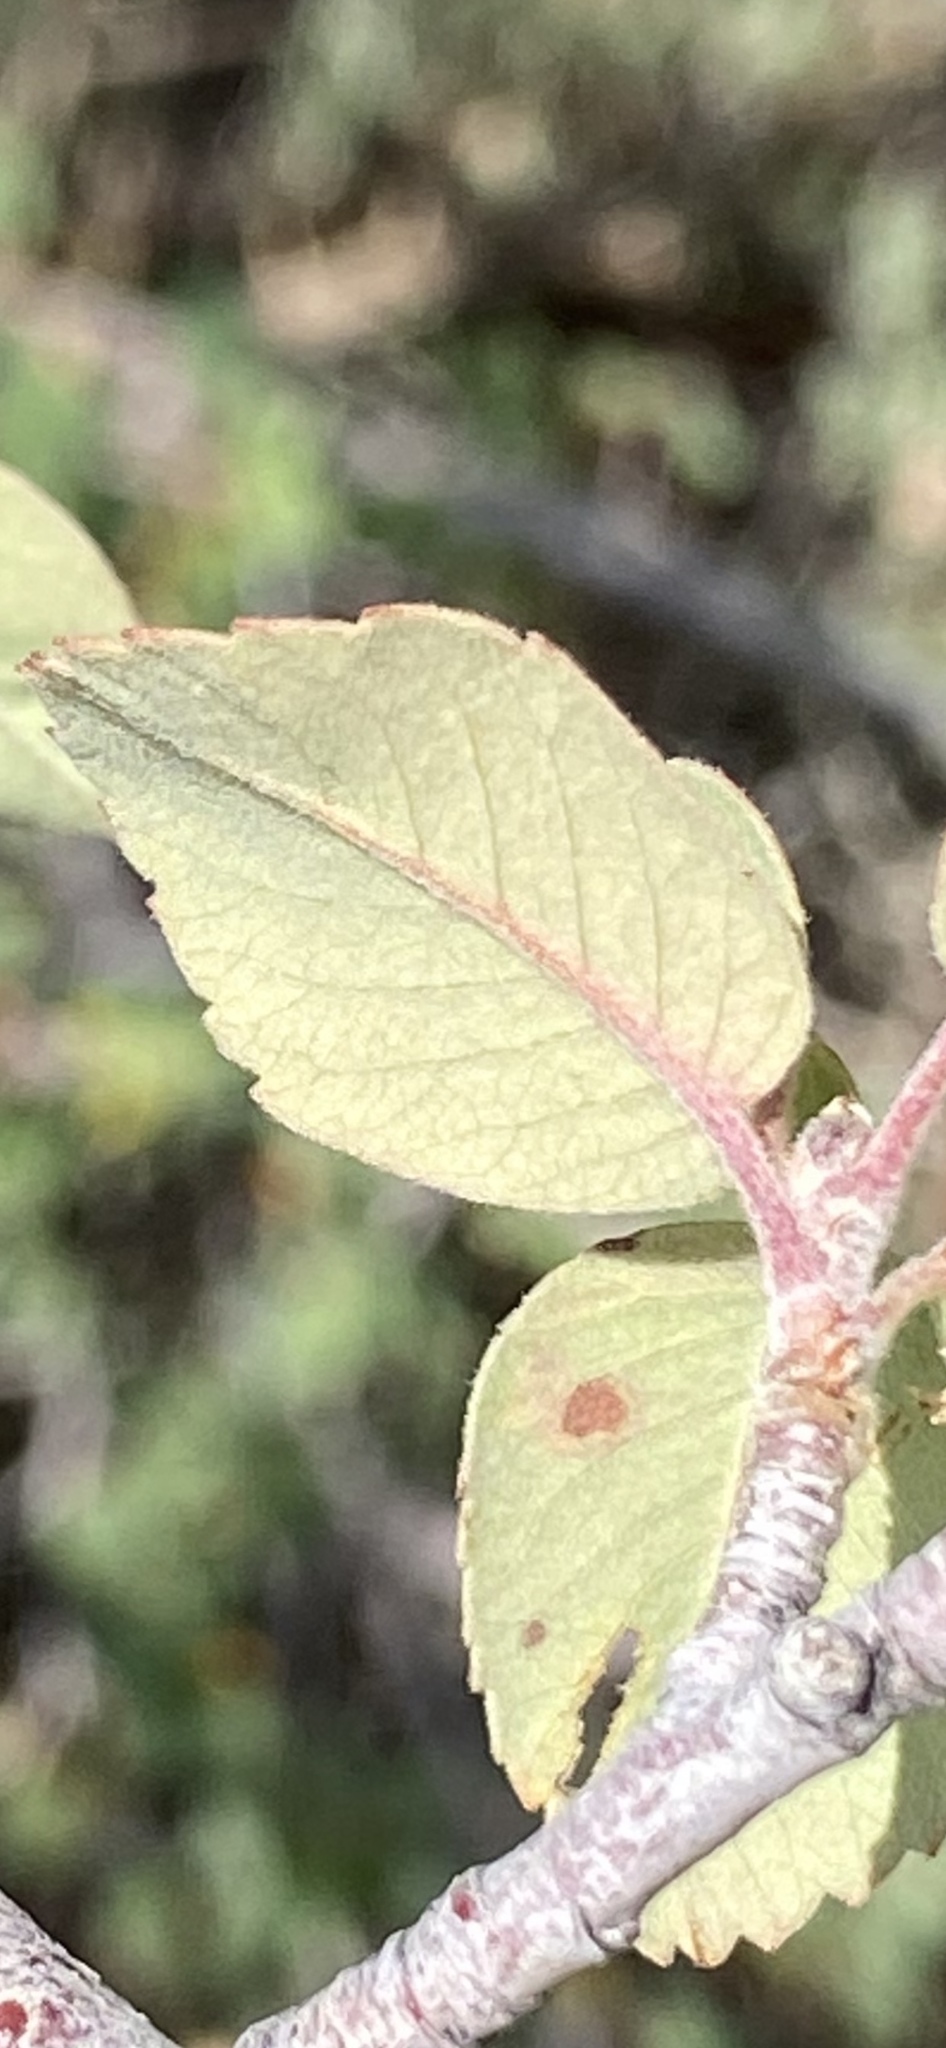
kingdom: Plantae
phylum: Tracheophyta
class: Magnoliopsida
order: Rosales
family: Rosaceae
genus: Amelanchier
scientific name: Amelanchier utahensis
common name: Utah serviceberry
